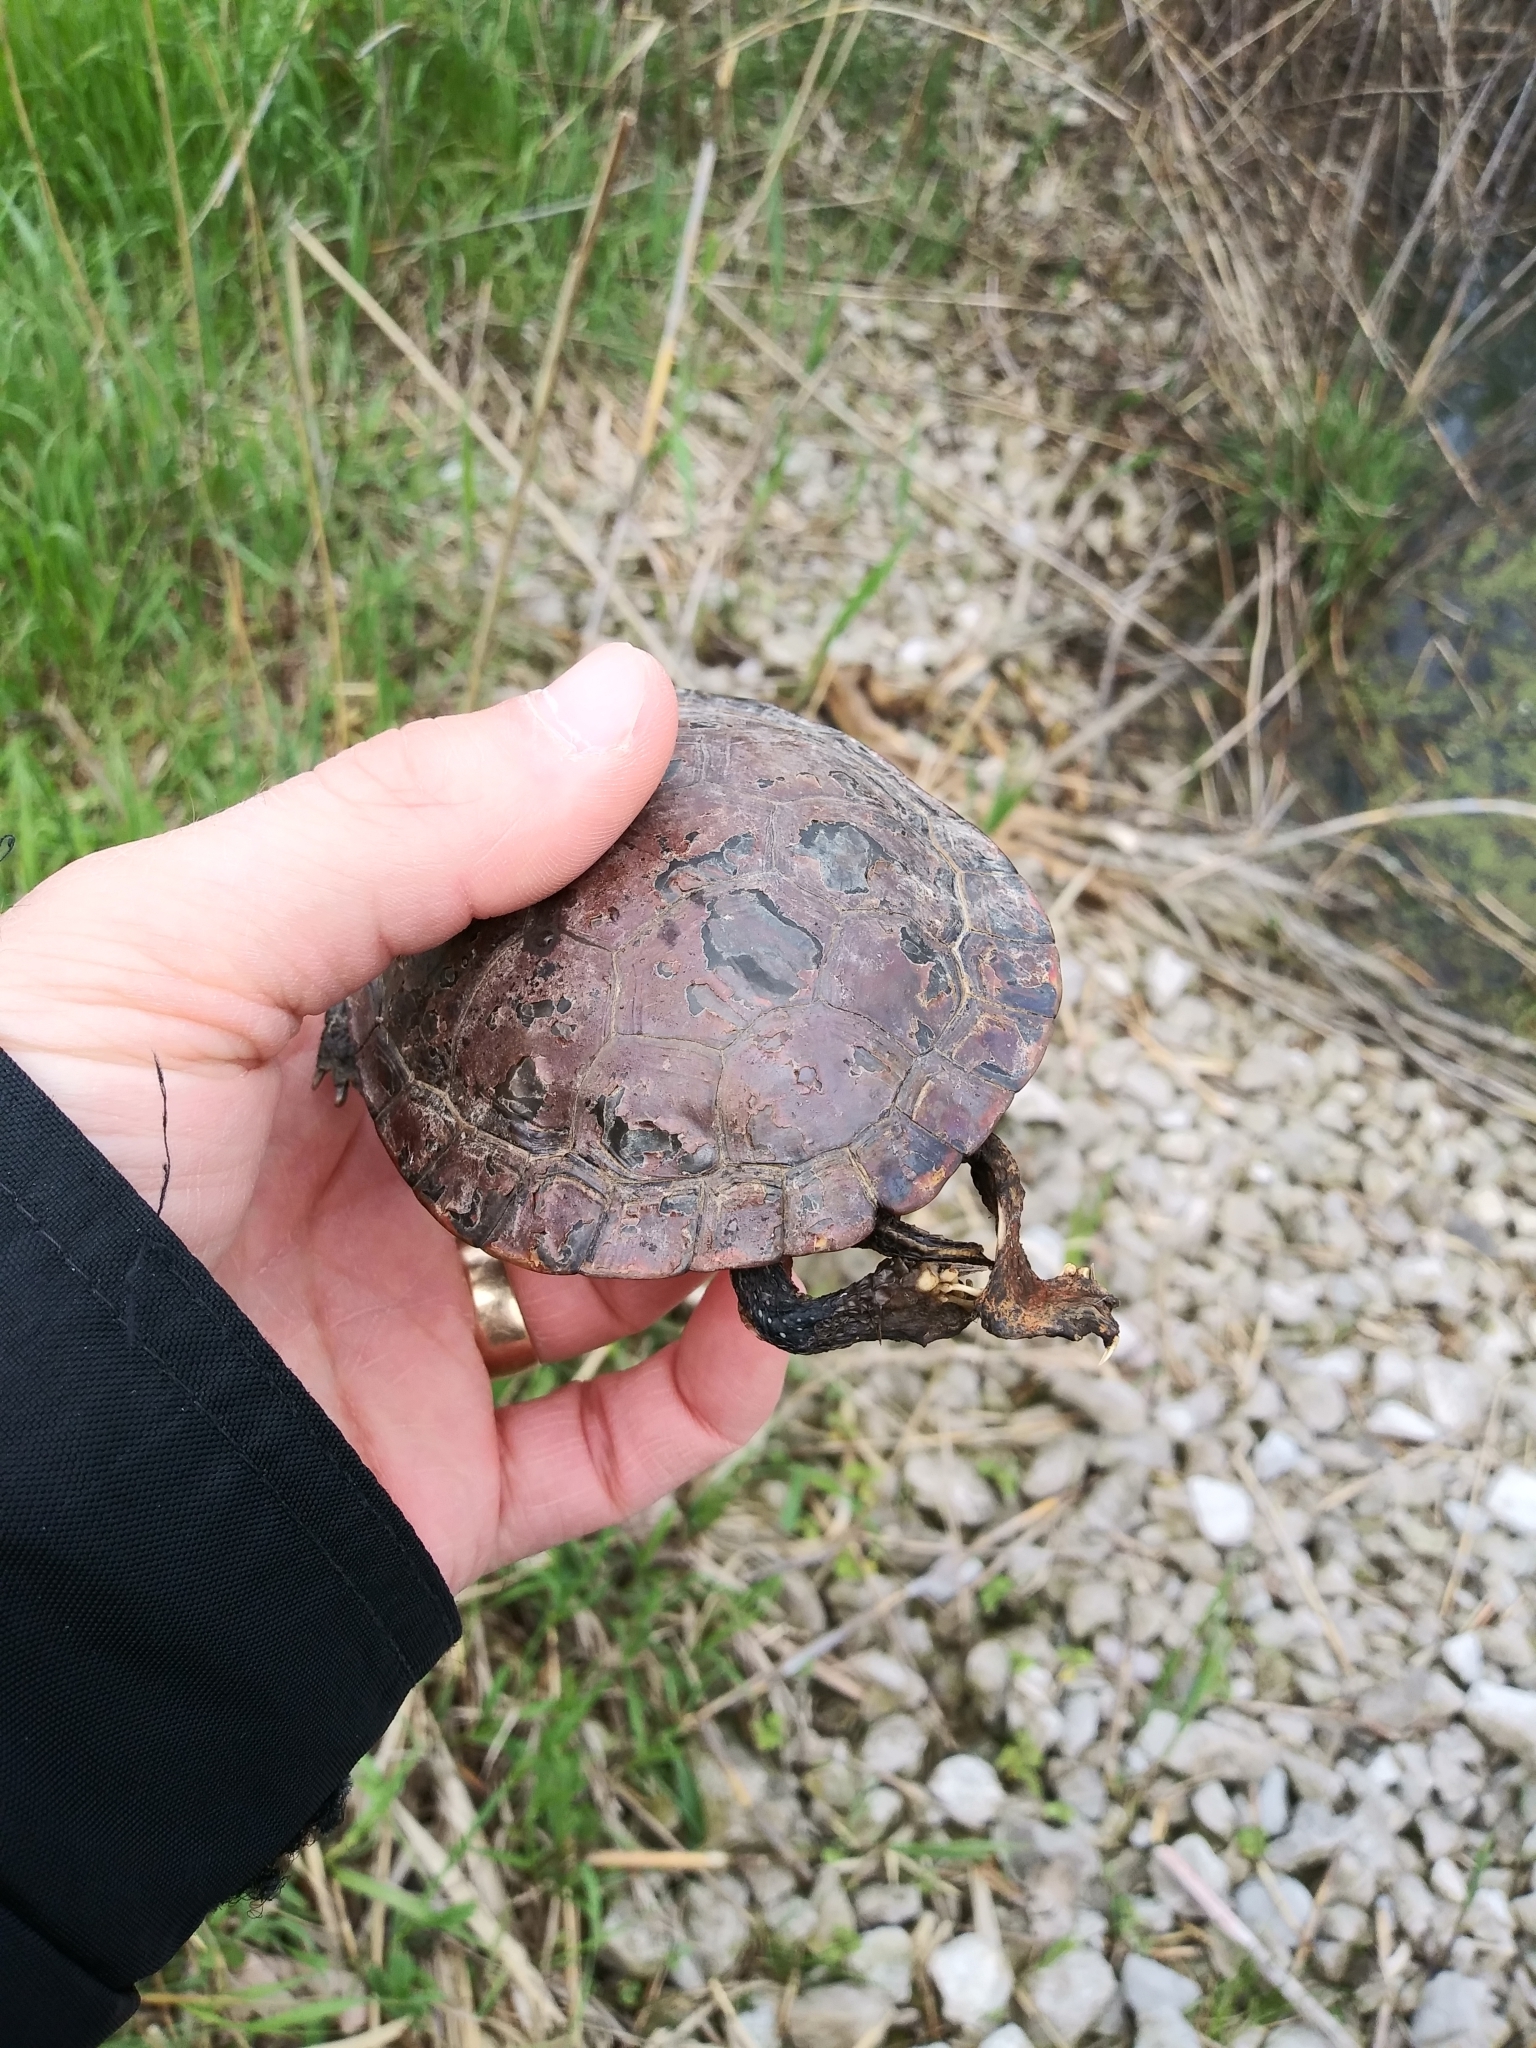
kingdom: Animalia
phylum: Chordata
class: Testudines
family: Emydidae
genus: Chrysemys
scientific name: Chrysemys picta
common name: Painted turtle
